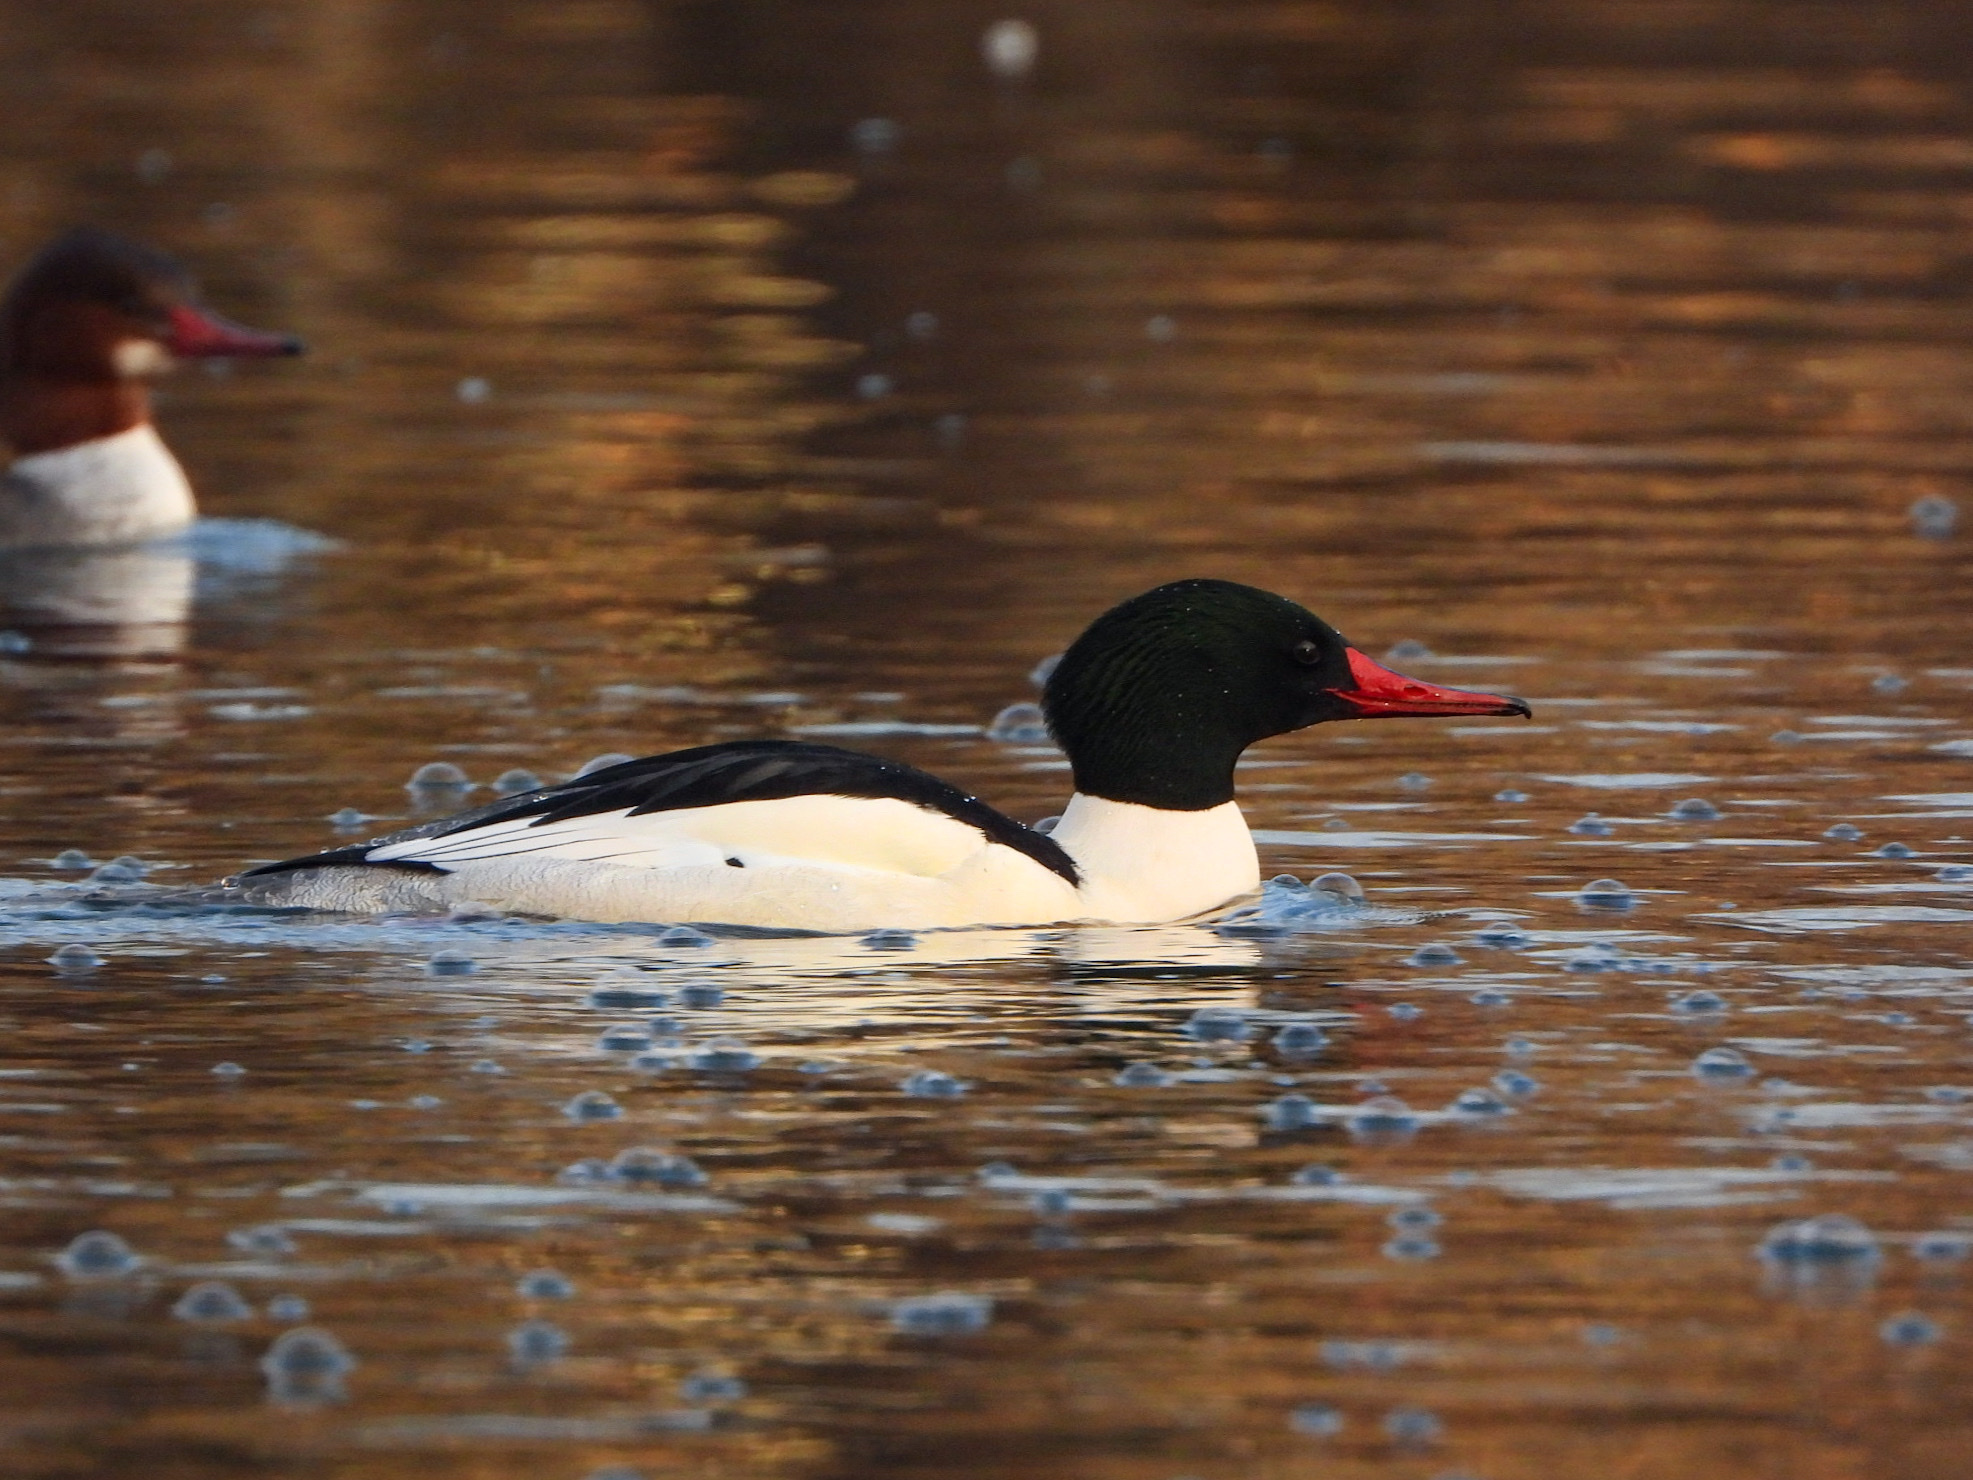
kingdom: Animalia
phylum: Chordata
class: Aves
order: Anseriformes
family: Anatidae
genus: Mergus
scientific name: Mergus merganser
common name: Common merganser
